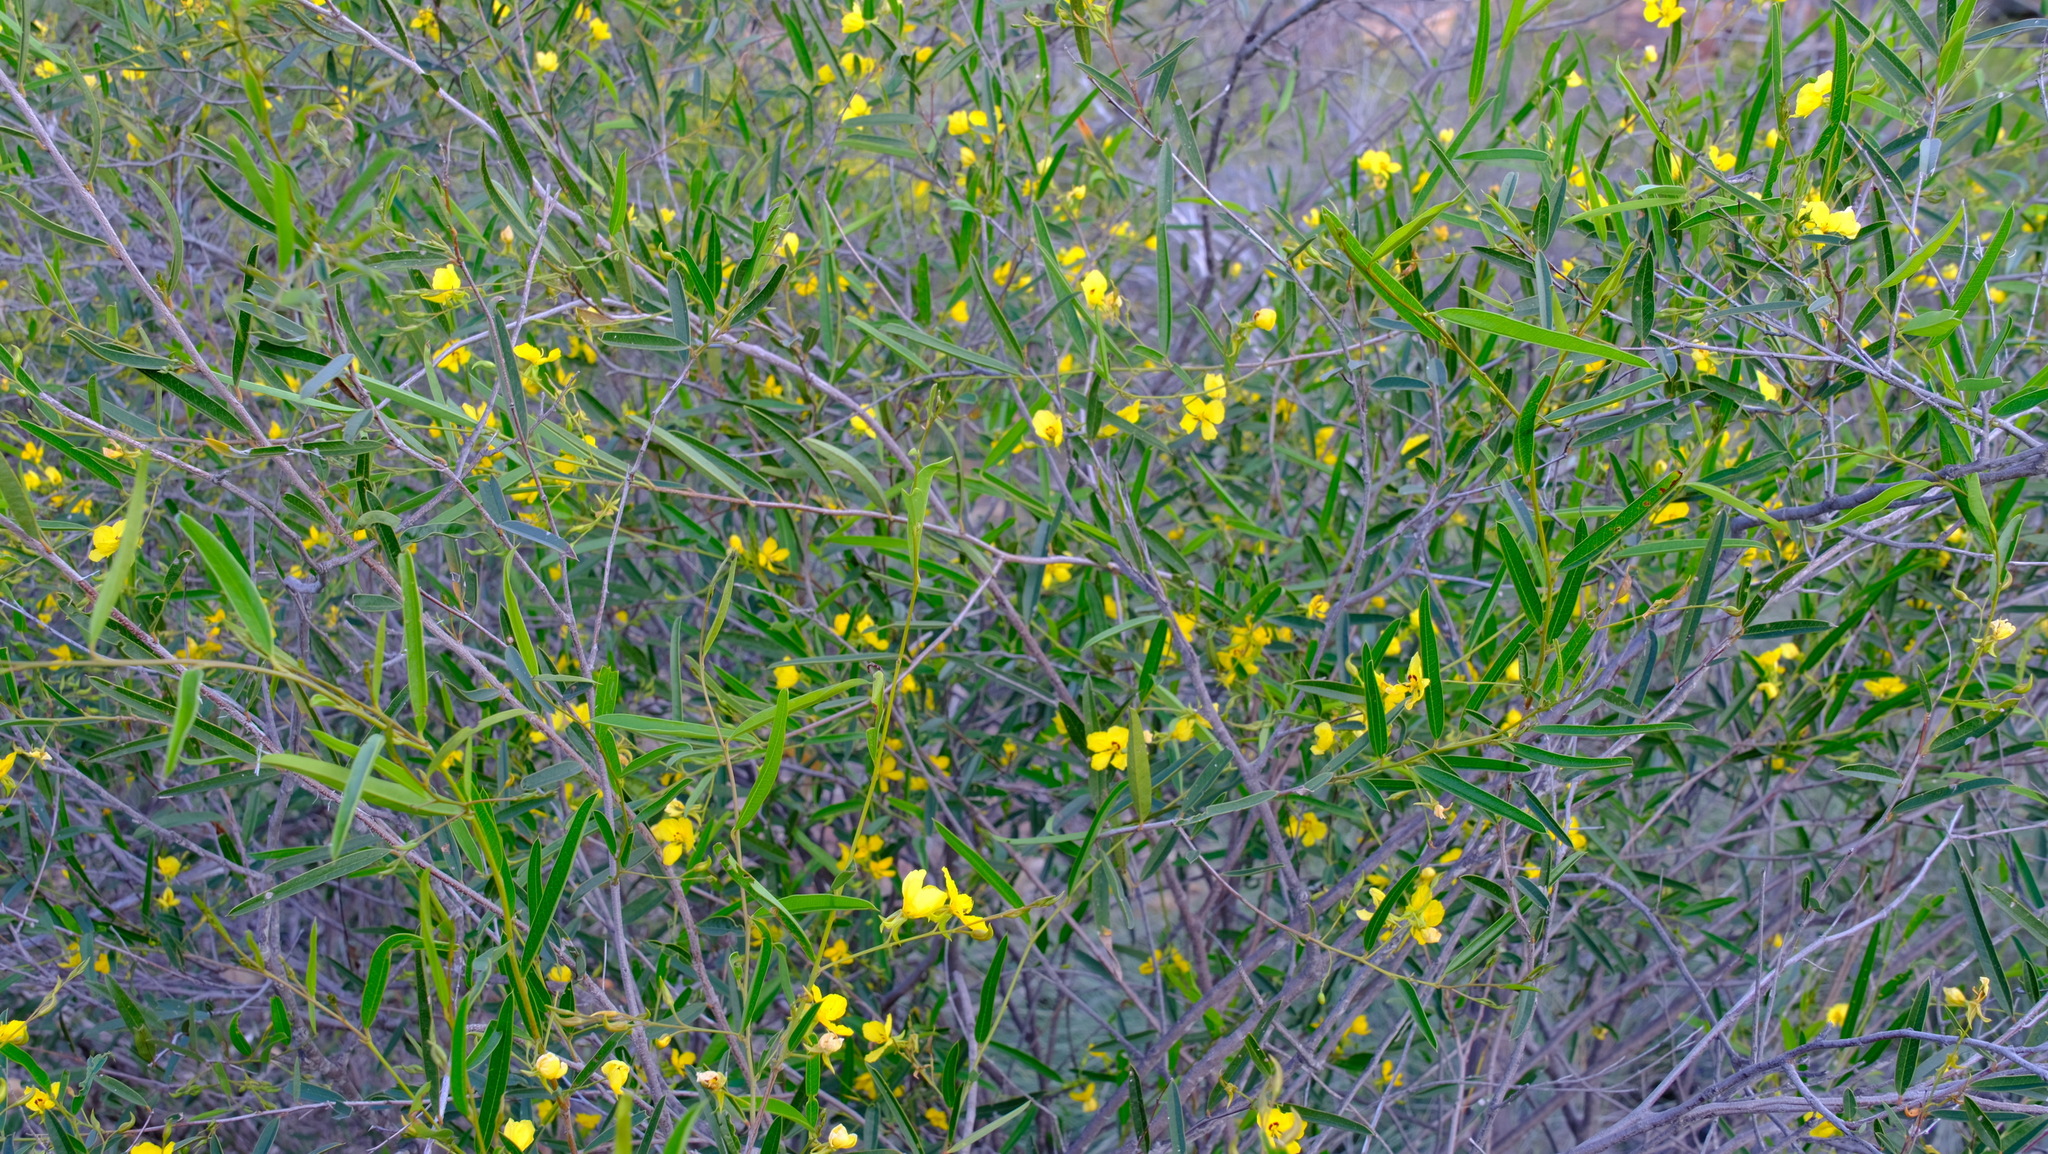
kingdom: Plantae
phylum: Tracheophyta
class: Magnoliopsida
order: Fabales
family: Fabaceae
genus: Labichea
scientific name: Labichea lanceolata
